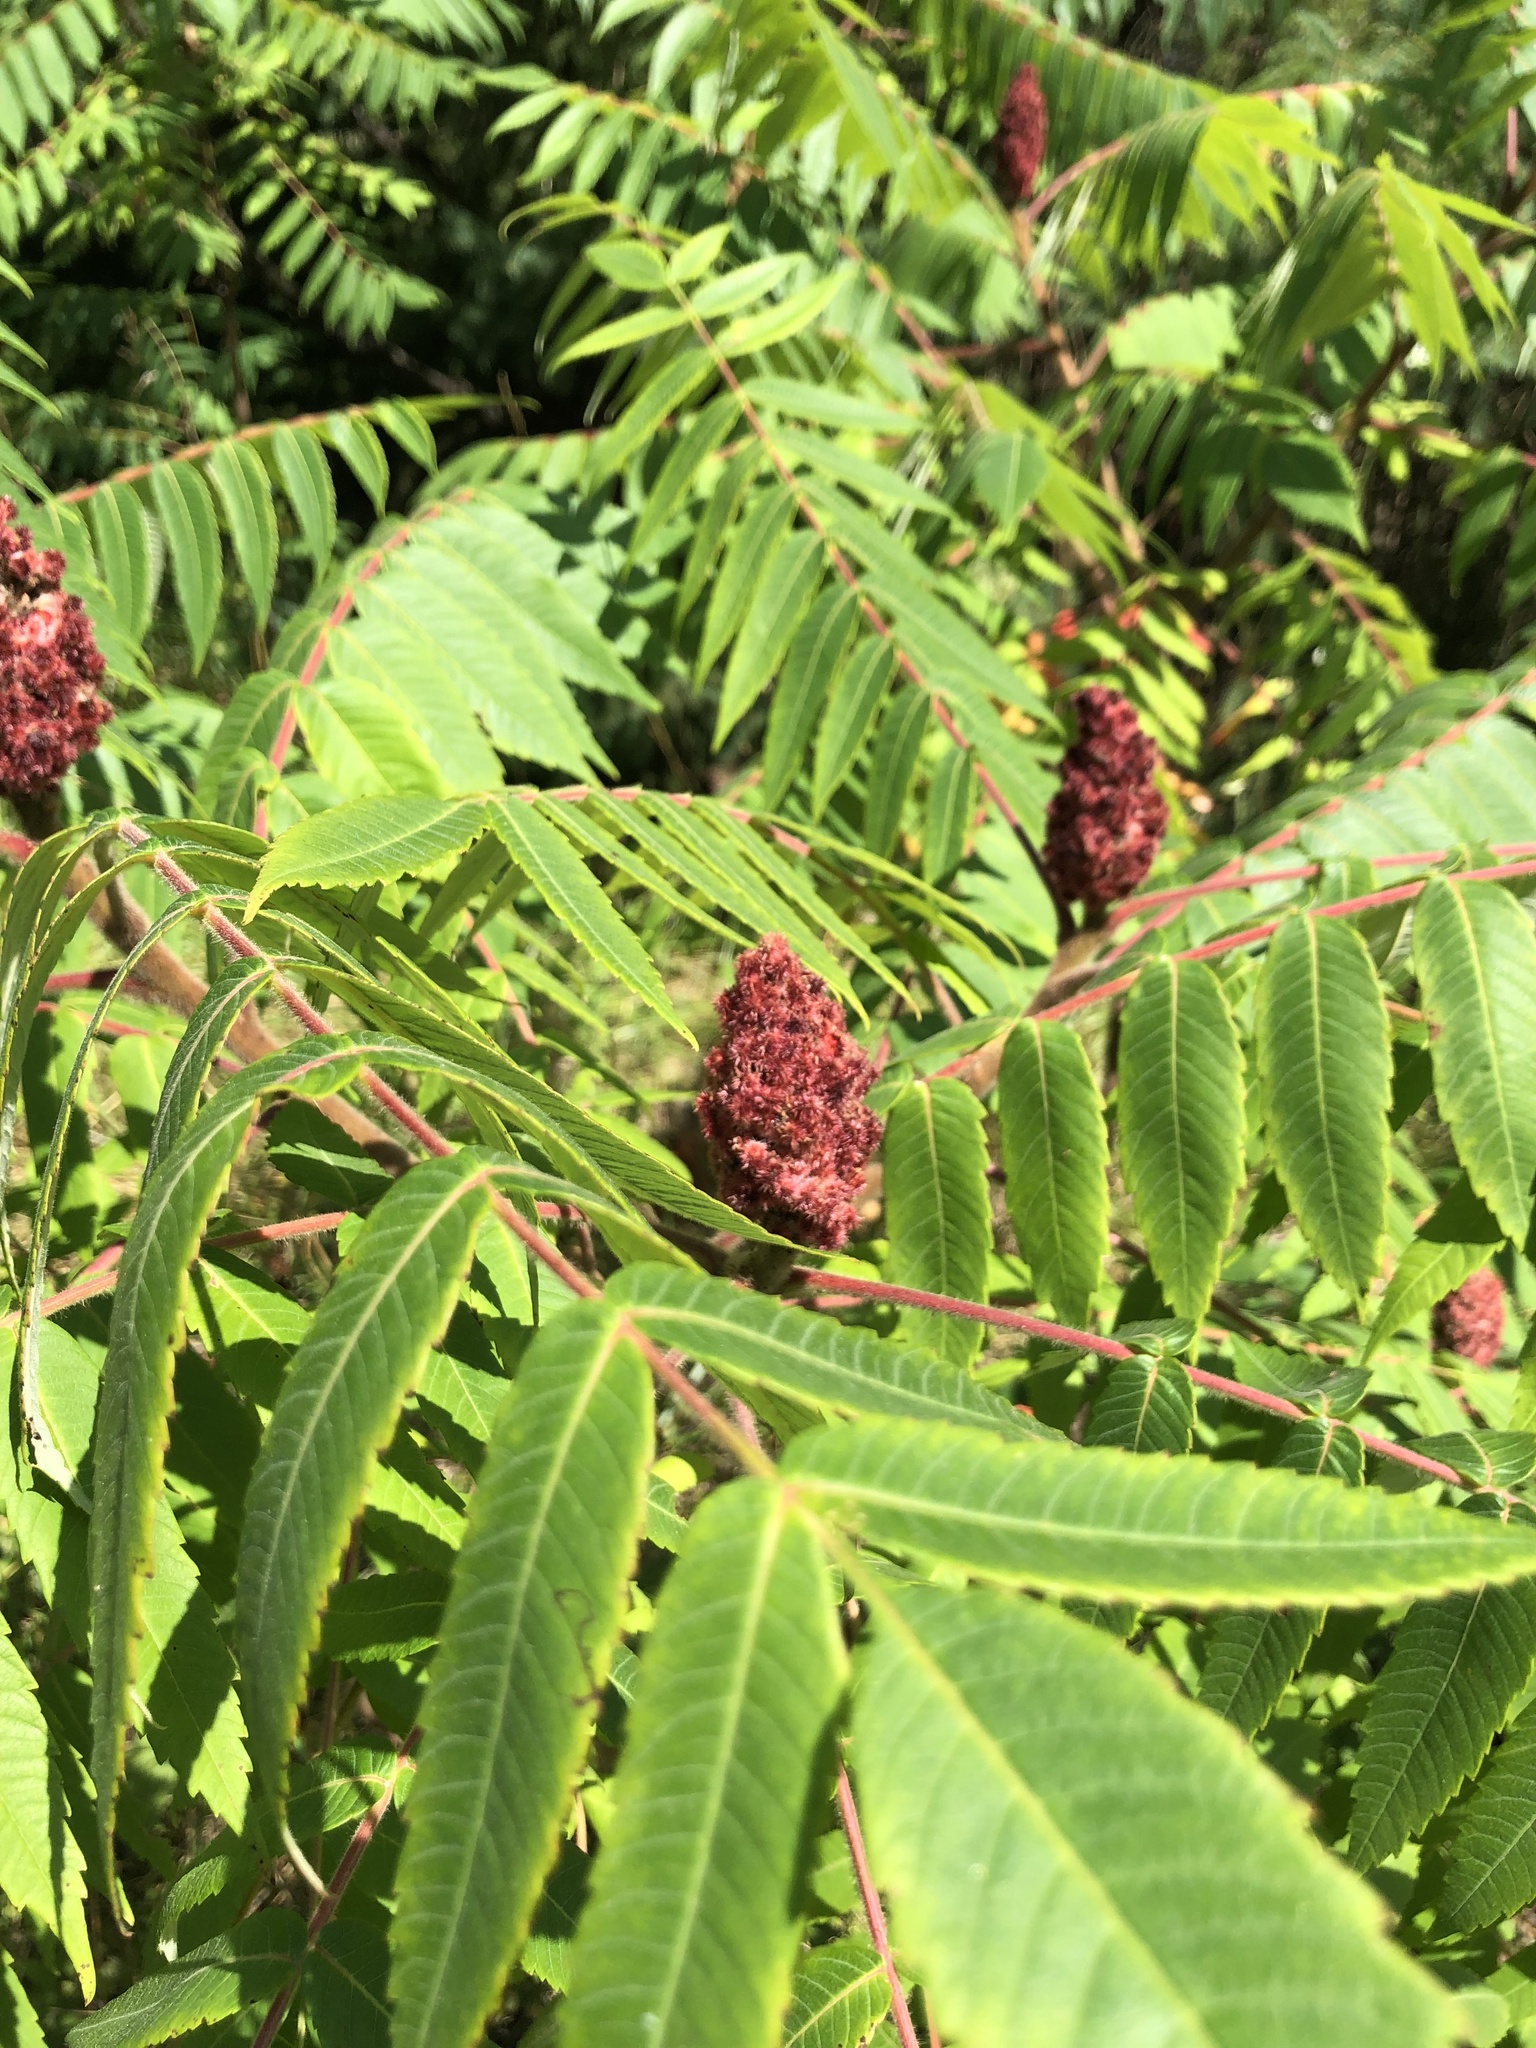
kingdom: Plantae
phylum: Tracheophyta
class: Magnoliopsida
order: Sapindales
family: Anacardiaceae
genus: Rhus
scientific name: Rhus typhina
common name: Staghorn sumac
